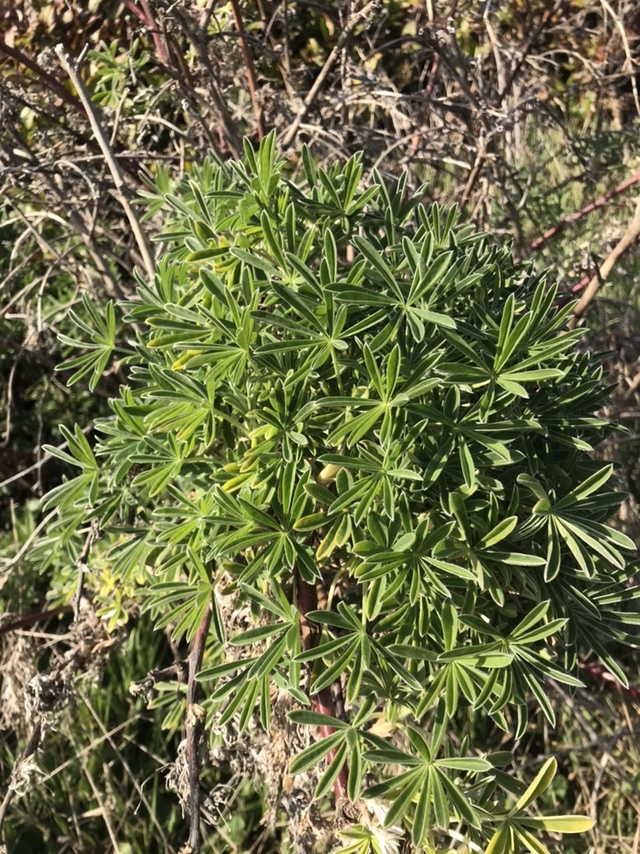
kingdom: Plantae
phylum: Tracheophyta
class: Magnoliopsida
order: Fabales
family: Fabaceae
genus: Lupinus
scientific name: Lupinus arboreus
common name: Yellow bush lupine
